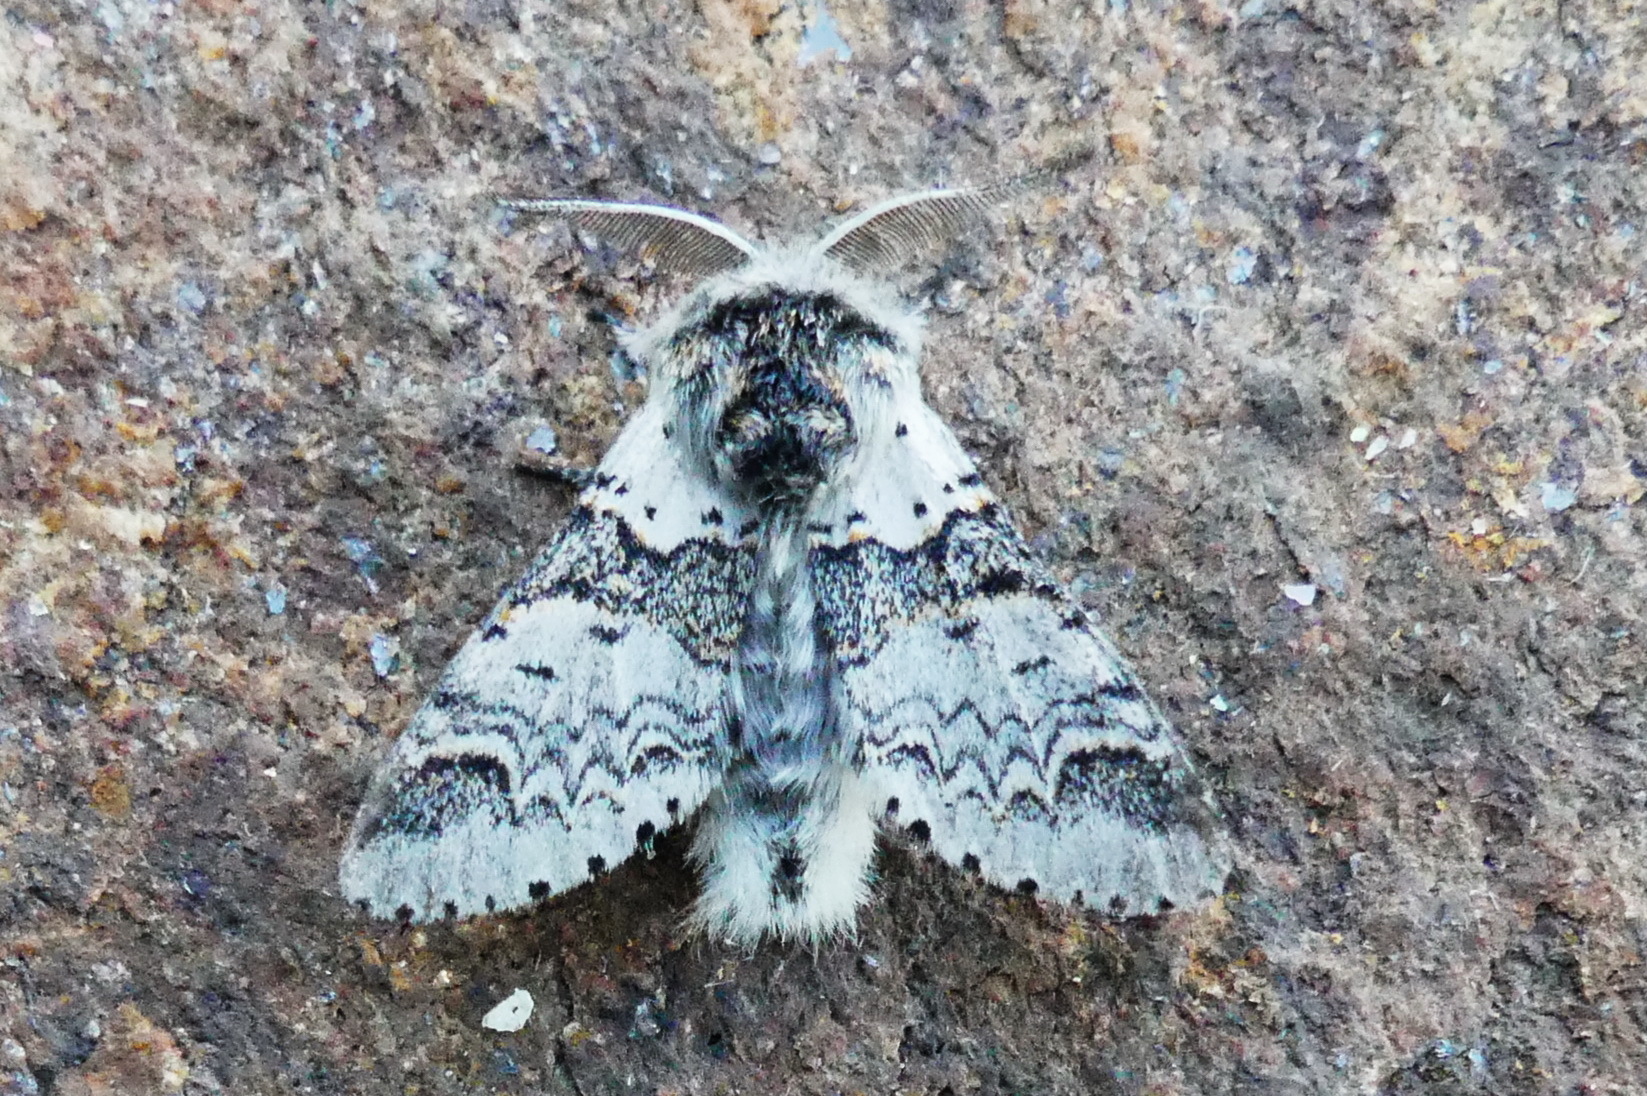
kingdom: Animalia
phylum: Arthropoda
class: Insecta
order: Lepidoptera
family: Notodontidae
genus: Furcula
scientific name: Furcula occidentalis
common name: Western furcula moth
